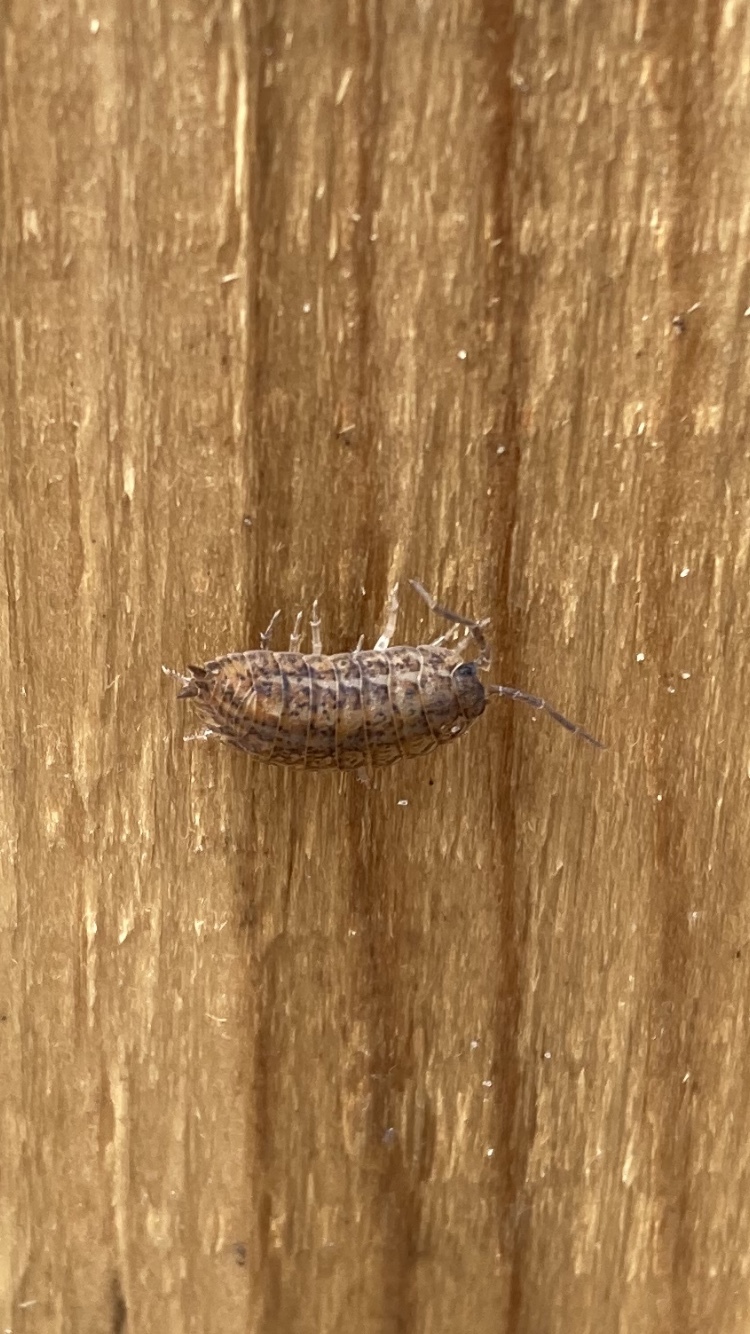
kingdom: Animalia
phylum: Arthropoda
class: Malacostraca
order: Isopoda
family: Trachelipodidae
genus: Trachelipus
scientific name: Trachelipus rathkii
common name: Isopod
